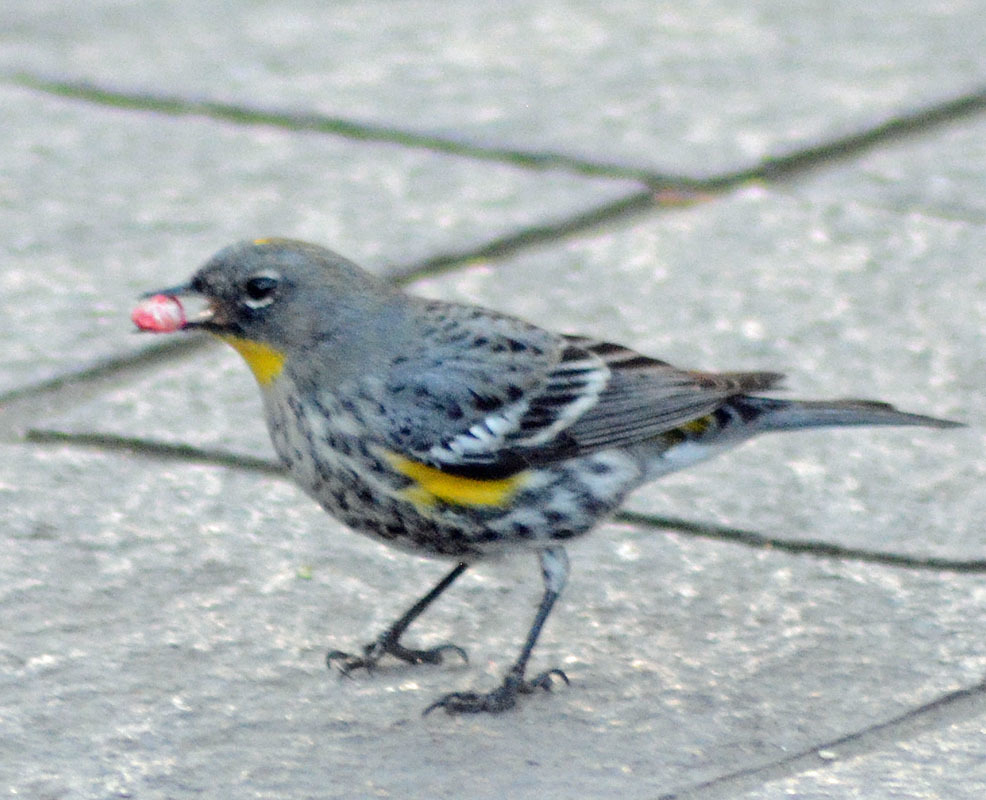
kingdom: Animalia
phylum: Chordata
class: Aves
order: Passeriformes
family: Parulidae
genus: Setophaga
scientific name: Setophaga coronata
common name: Myrtle warbler
